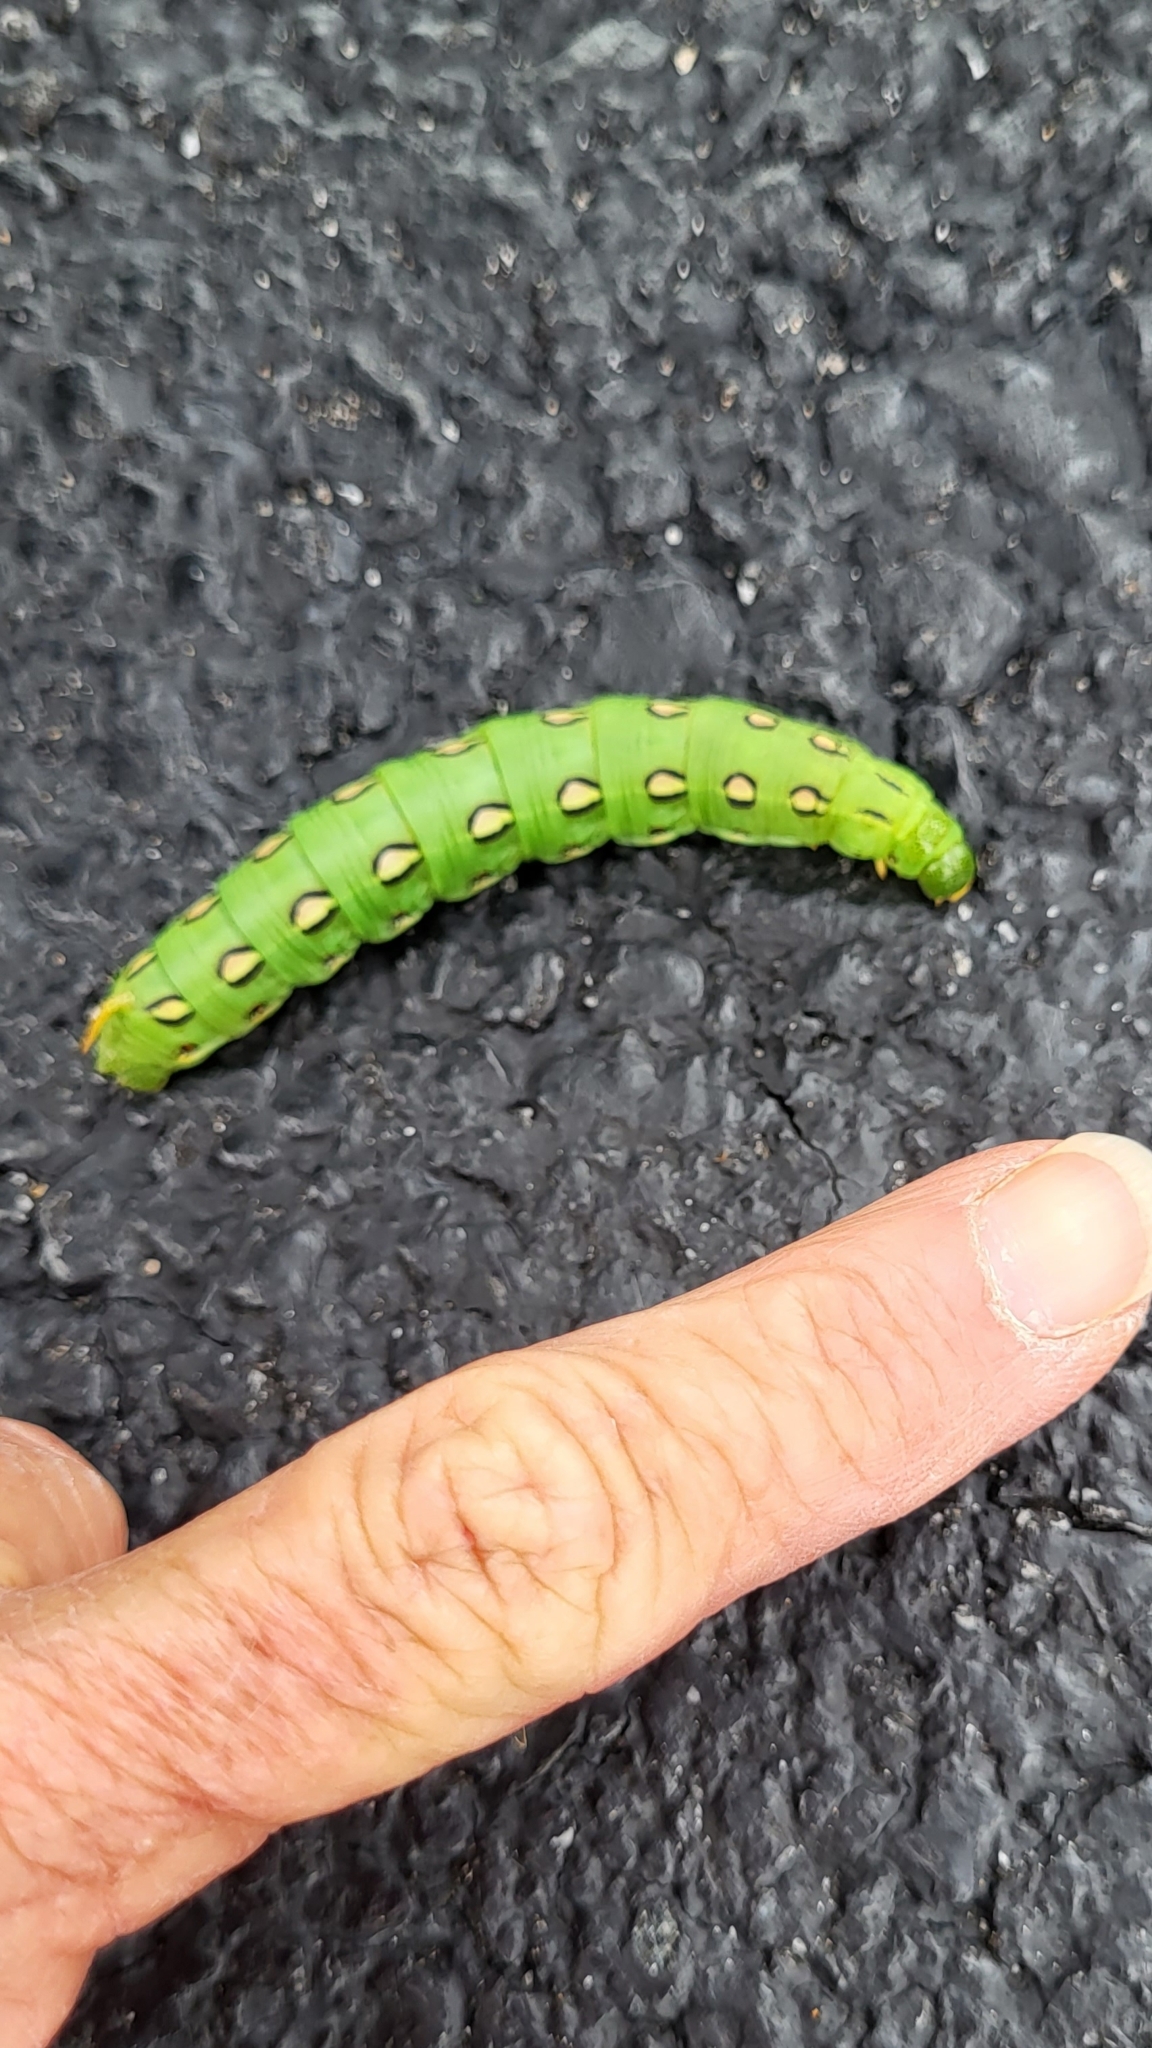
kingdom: Animalia
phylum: Arthropoda
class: Insecta
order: Lepidoptera
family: Sphingidae
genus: Hyles
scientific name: Hyles lineata
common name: White-lined sphinx
